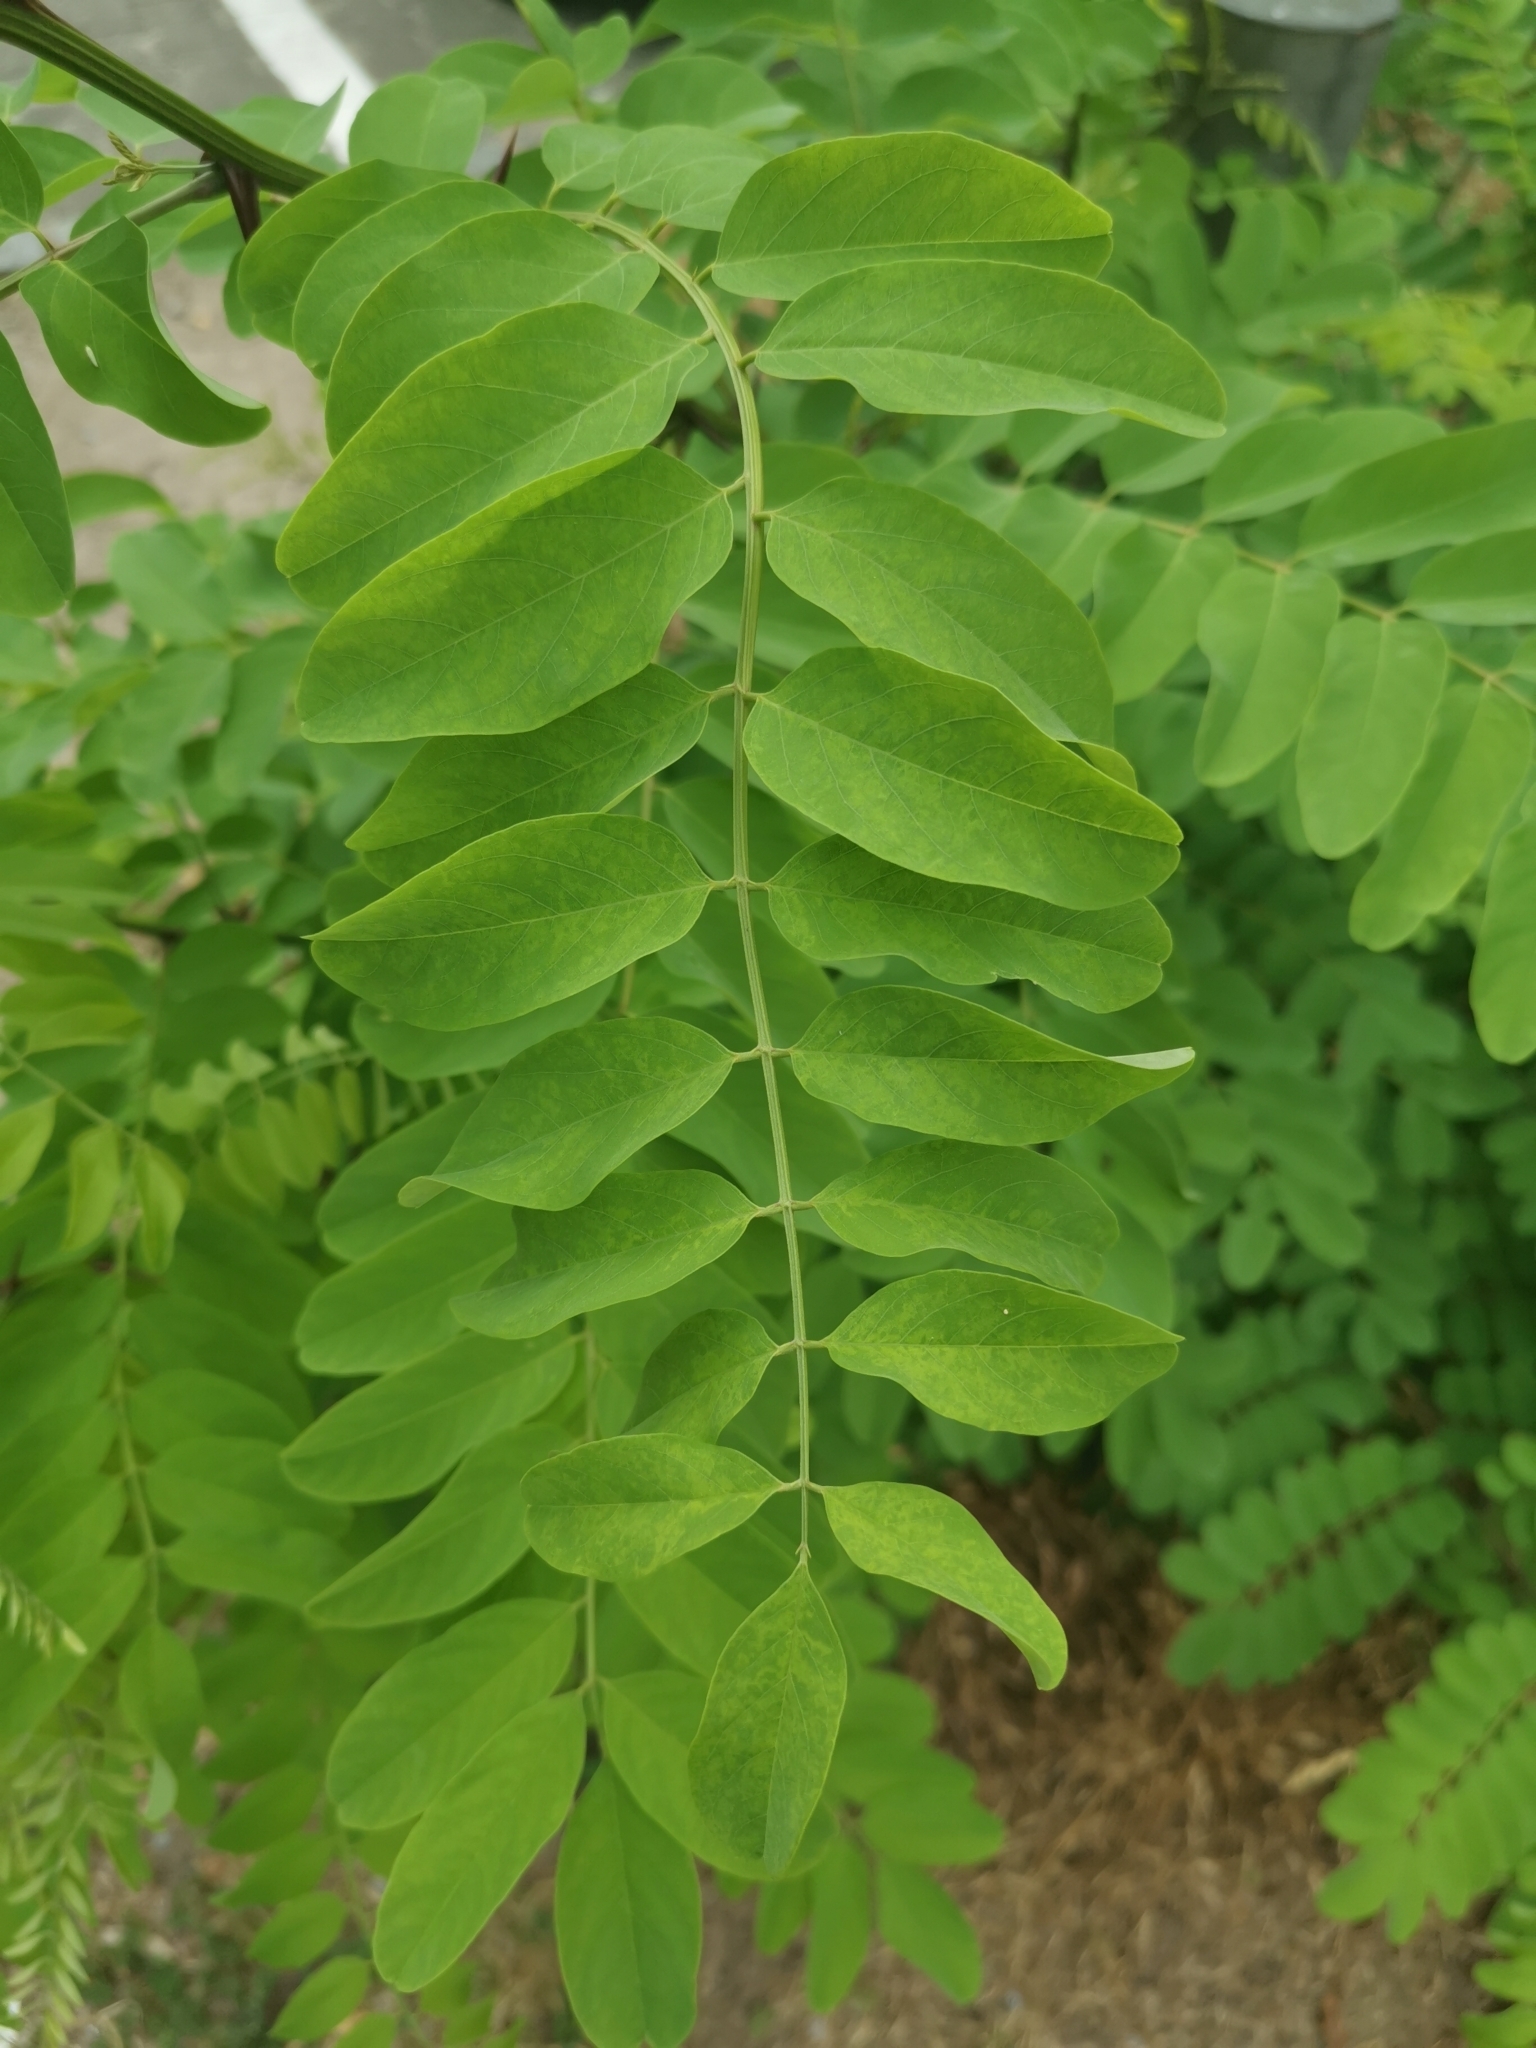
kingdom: Plantae
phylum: Tracheophyta
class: Magnoliopsida
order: Fabales
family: Fabaceae
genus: Robinia
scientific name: Robinia pseudoacacia
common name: Black locust
